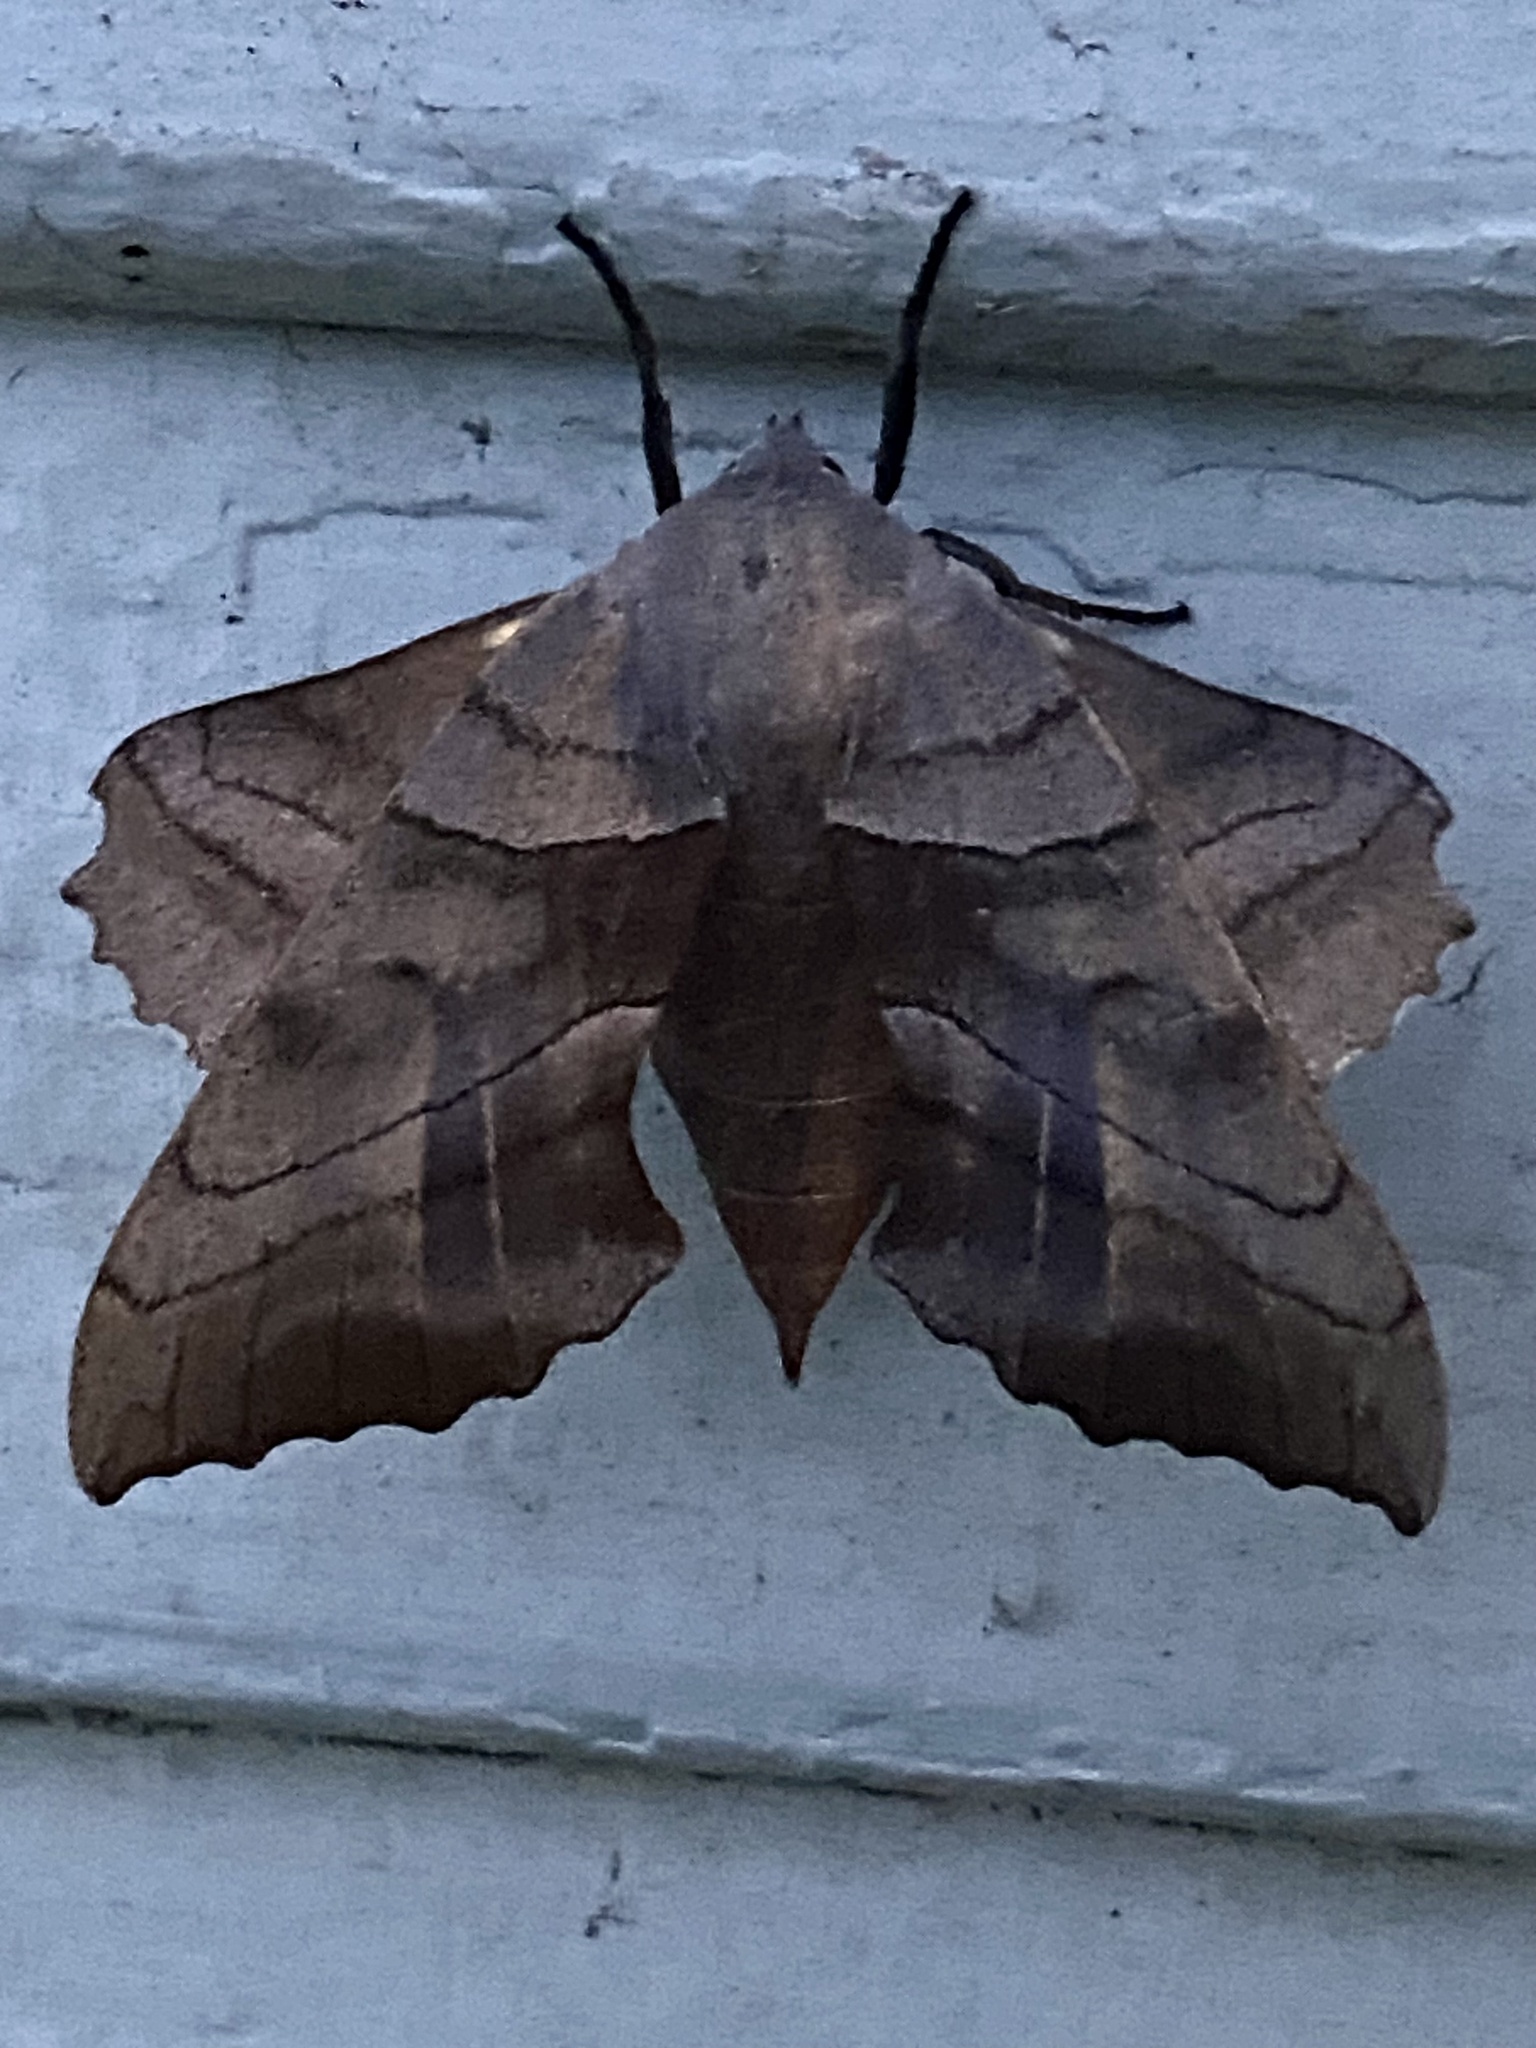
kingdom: Animalia
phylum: Arthropoda
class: Insecta
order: Lepidoptera
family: Sphingidae
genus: Amorpha
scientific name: Amorpha juglandis
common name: Walnut sphinx
